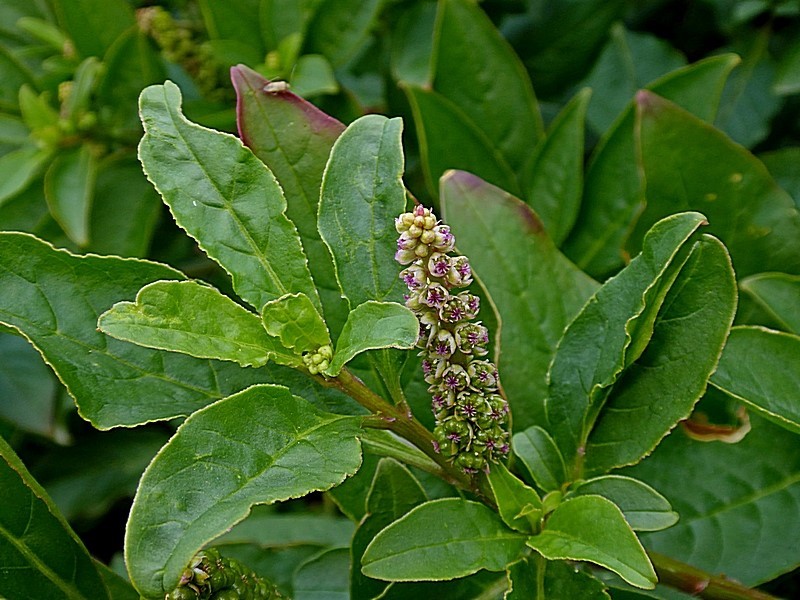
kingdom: Plantae
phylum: Tracheophyta
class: Magnoliopsida
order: Caryophyllales
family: Phytolaccaceae
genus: Phytolacca
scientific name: Phytolacca icosandra
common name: Button pokeweed
